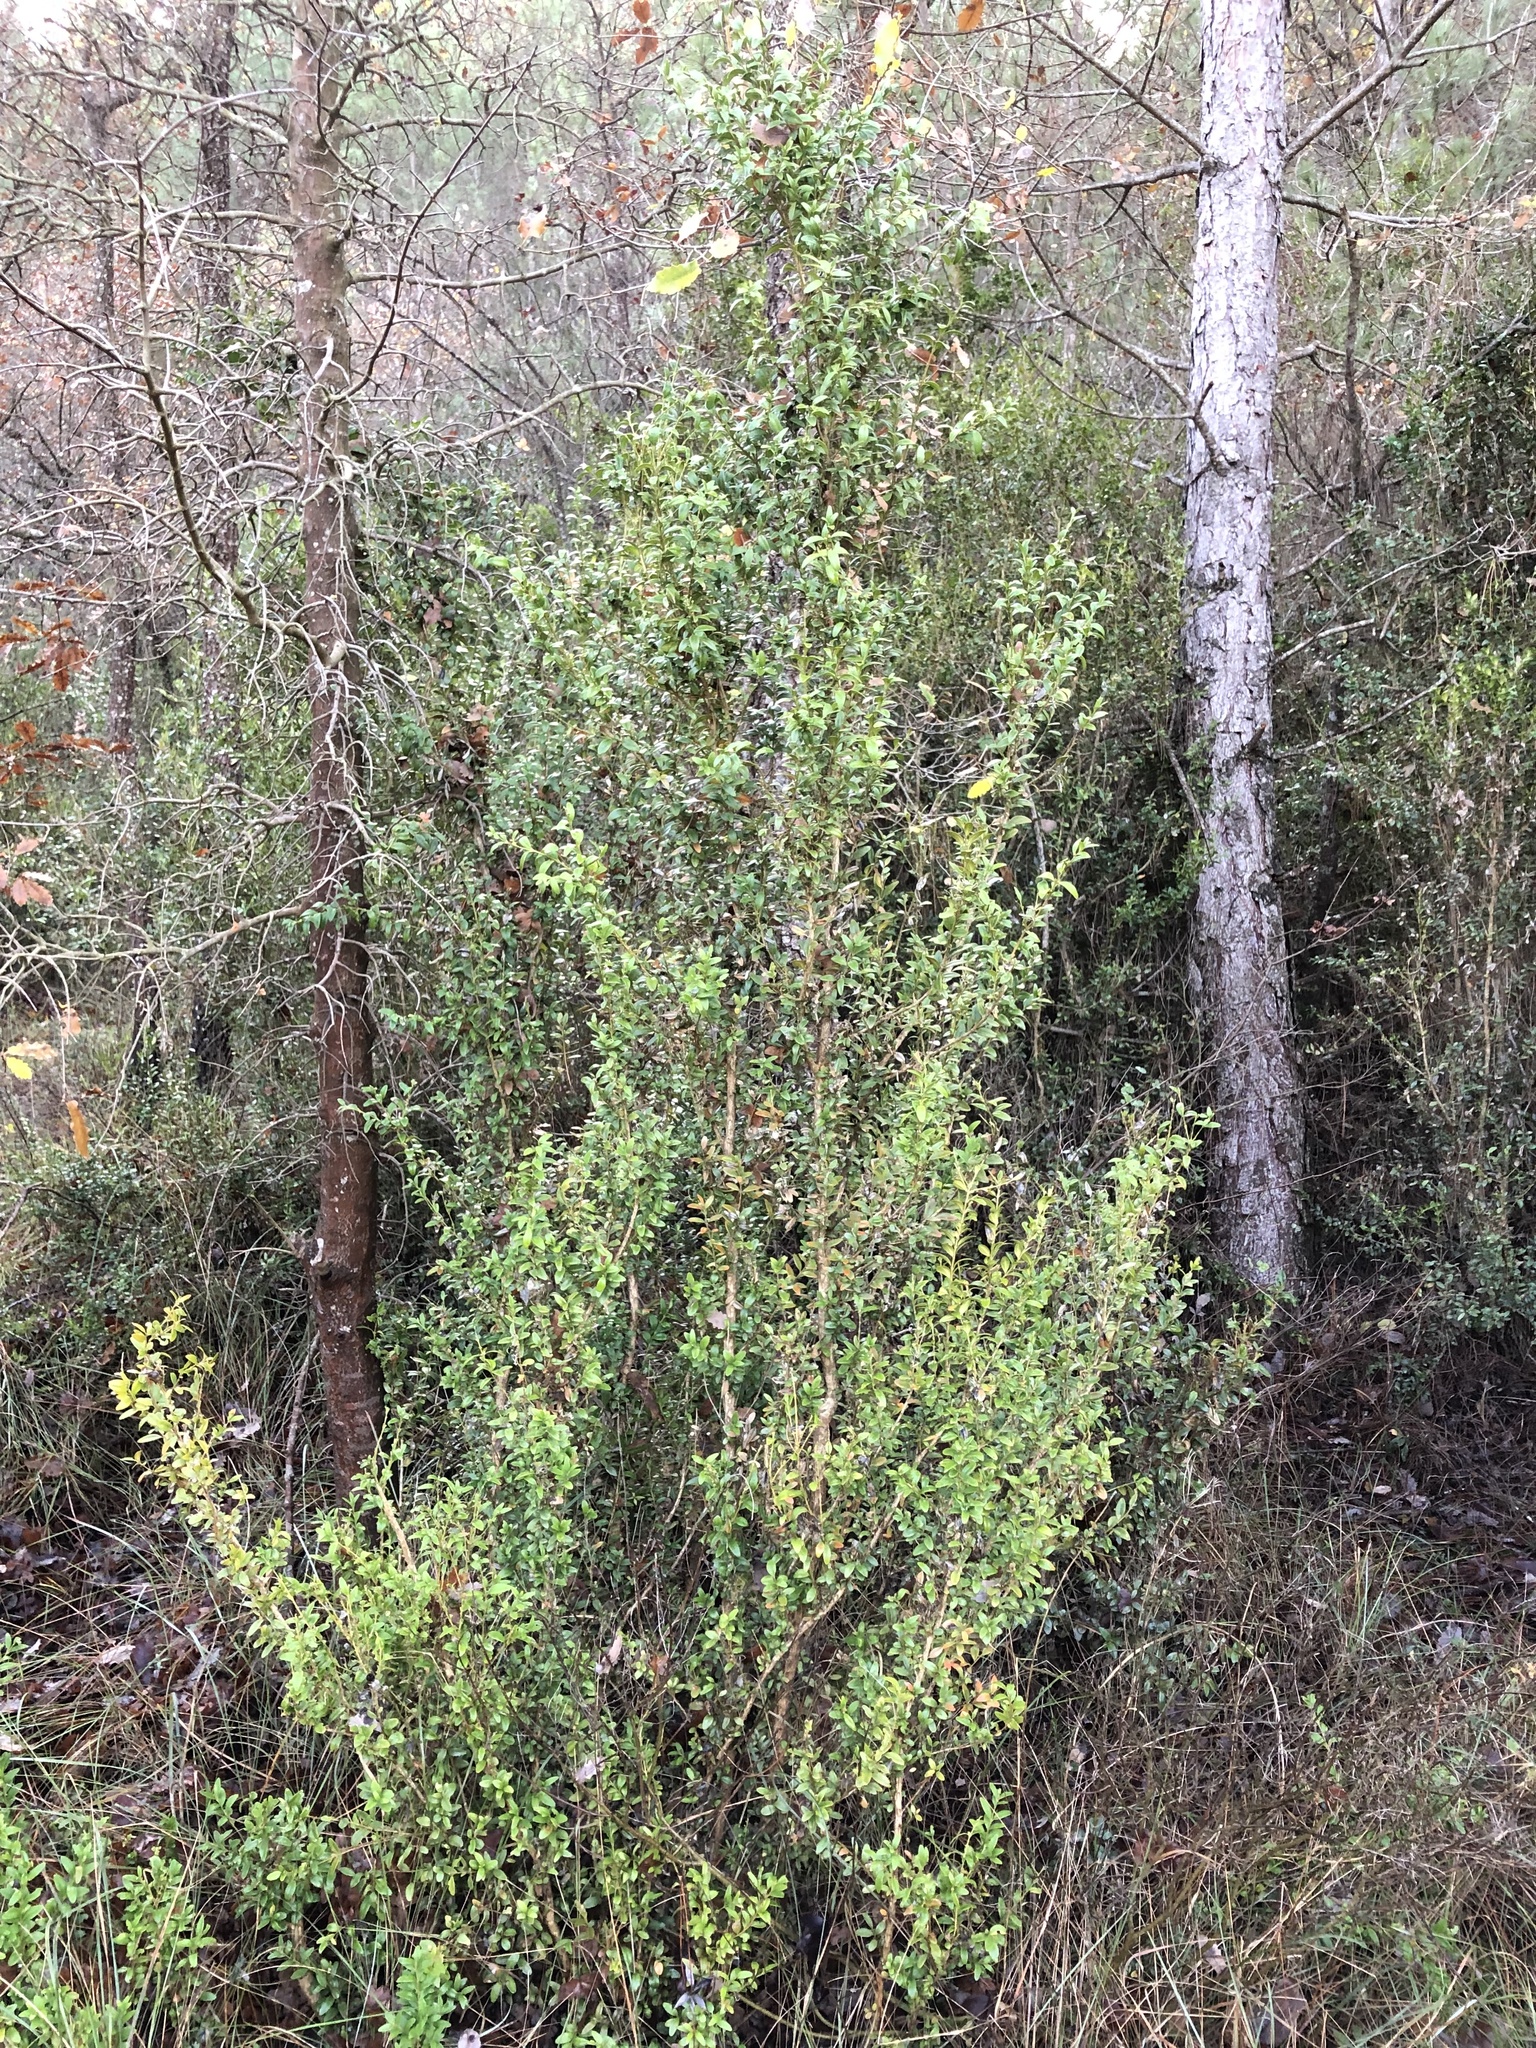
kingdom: Plantae
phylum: Tracheophyta
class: Magnoliopsida
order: Buxales
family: Buxaceae
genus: Buxus
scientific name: Buxus sempervirens
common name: Box
